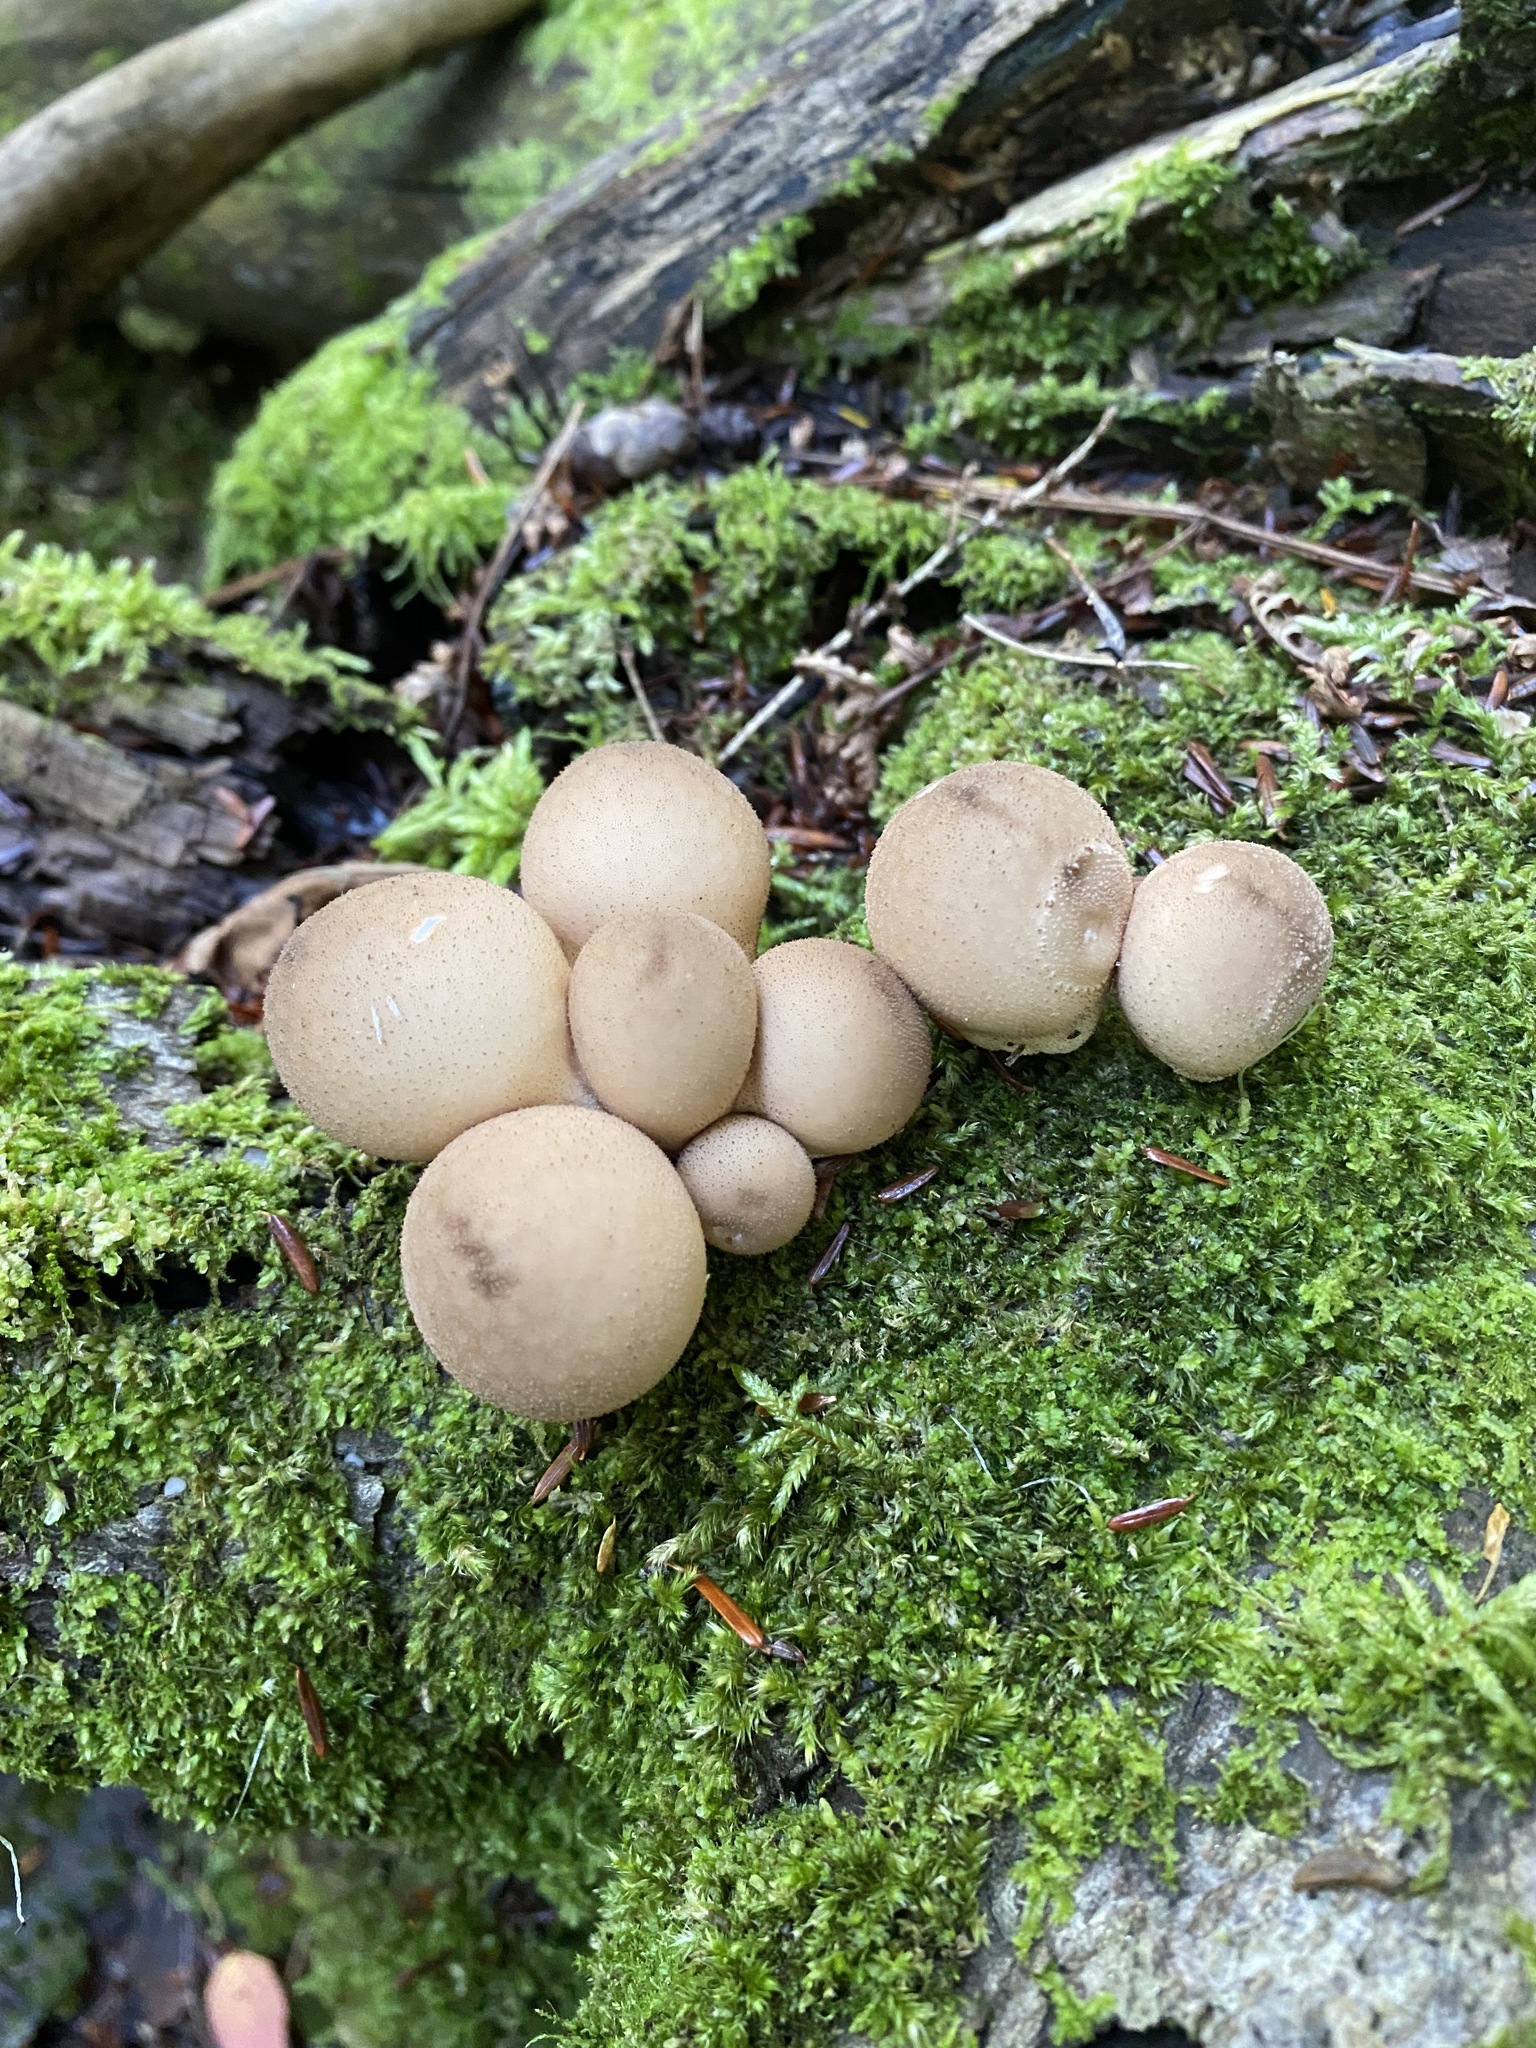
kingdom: Fungi
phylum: Basidiomycota
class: Agaricomycetes
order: Agaricales
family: Lycoperdaceae
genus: Apioperdon
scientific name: Apioperdon pyriforme
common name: Pear-shaped puffball
